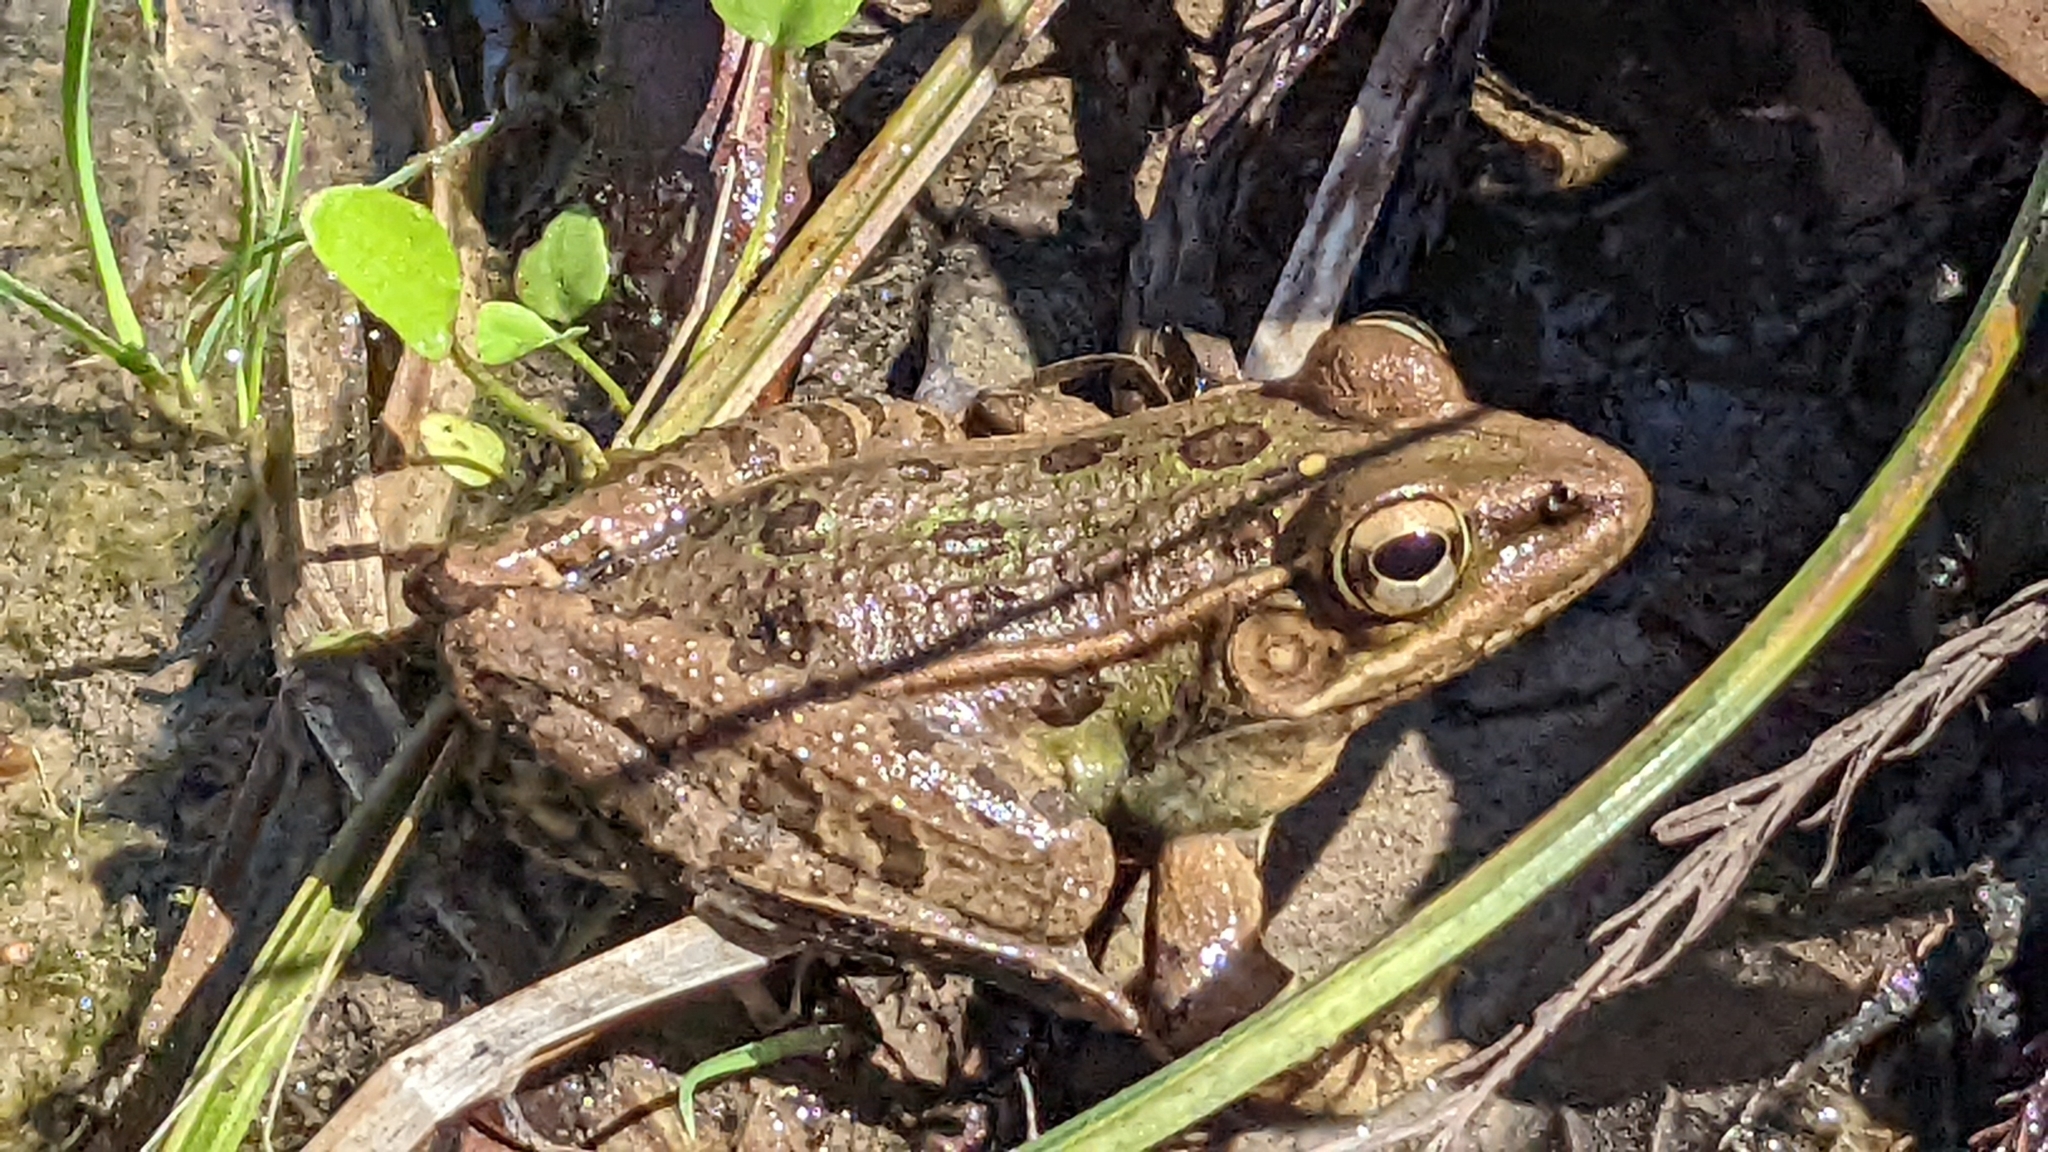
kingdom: Animalia
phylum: Chordata
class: Amphibia
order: Anura
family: Ranidae
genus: Lithobates
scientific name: Lithobates sphenocephalus
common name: Southern leopard frog
